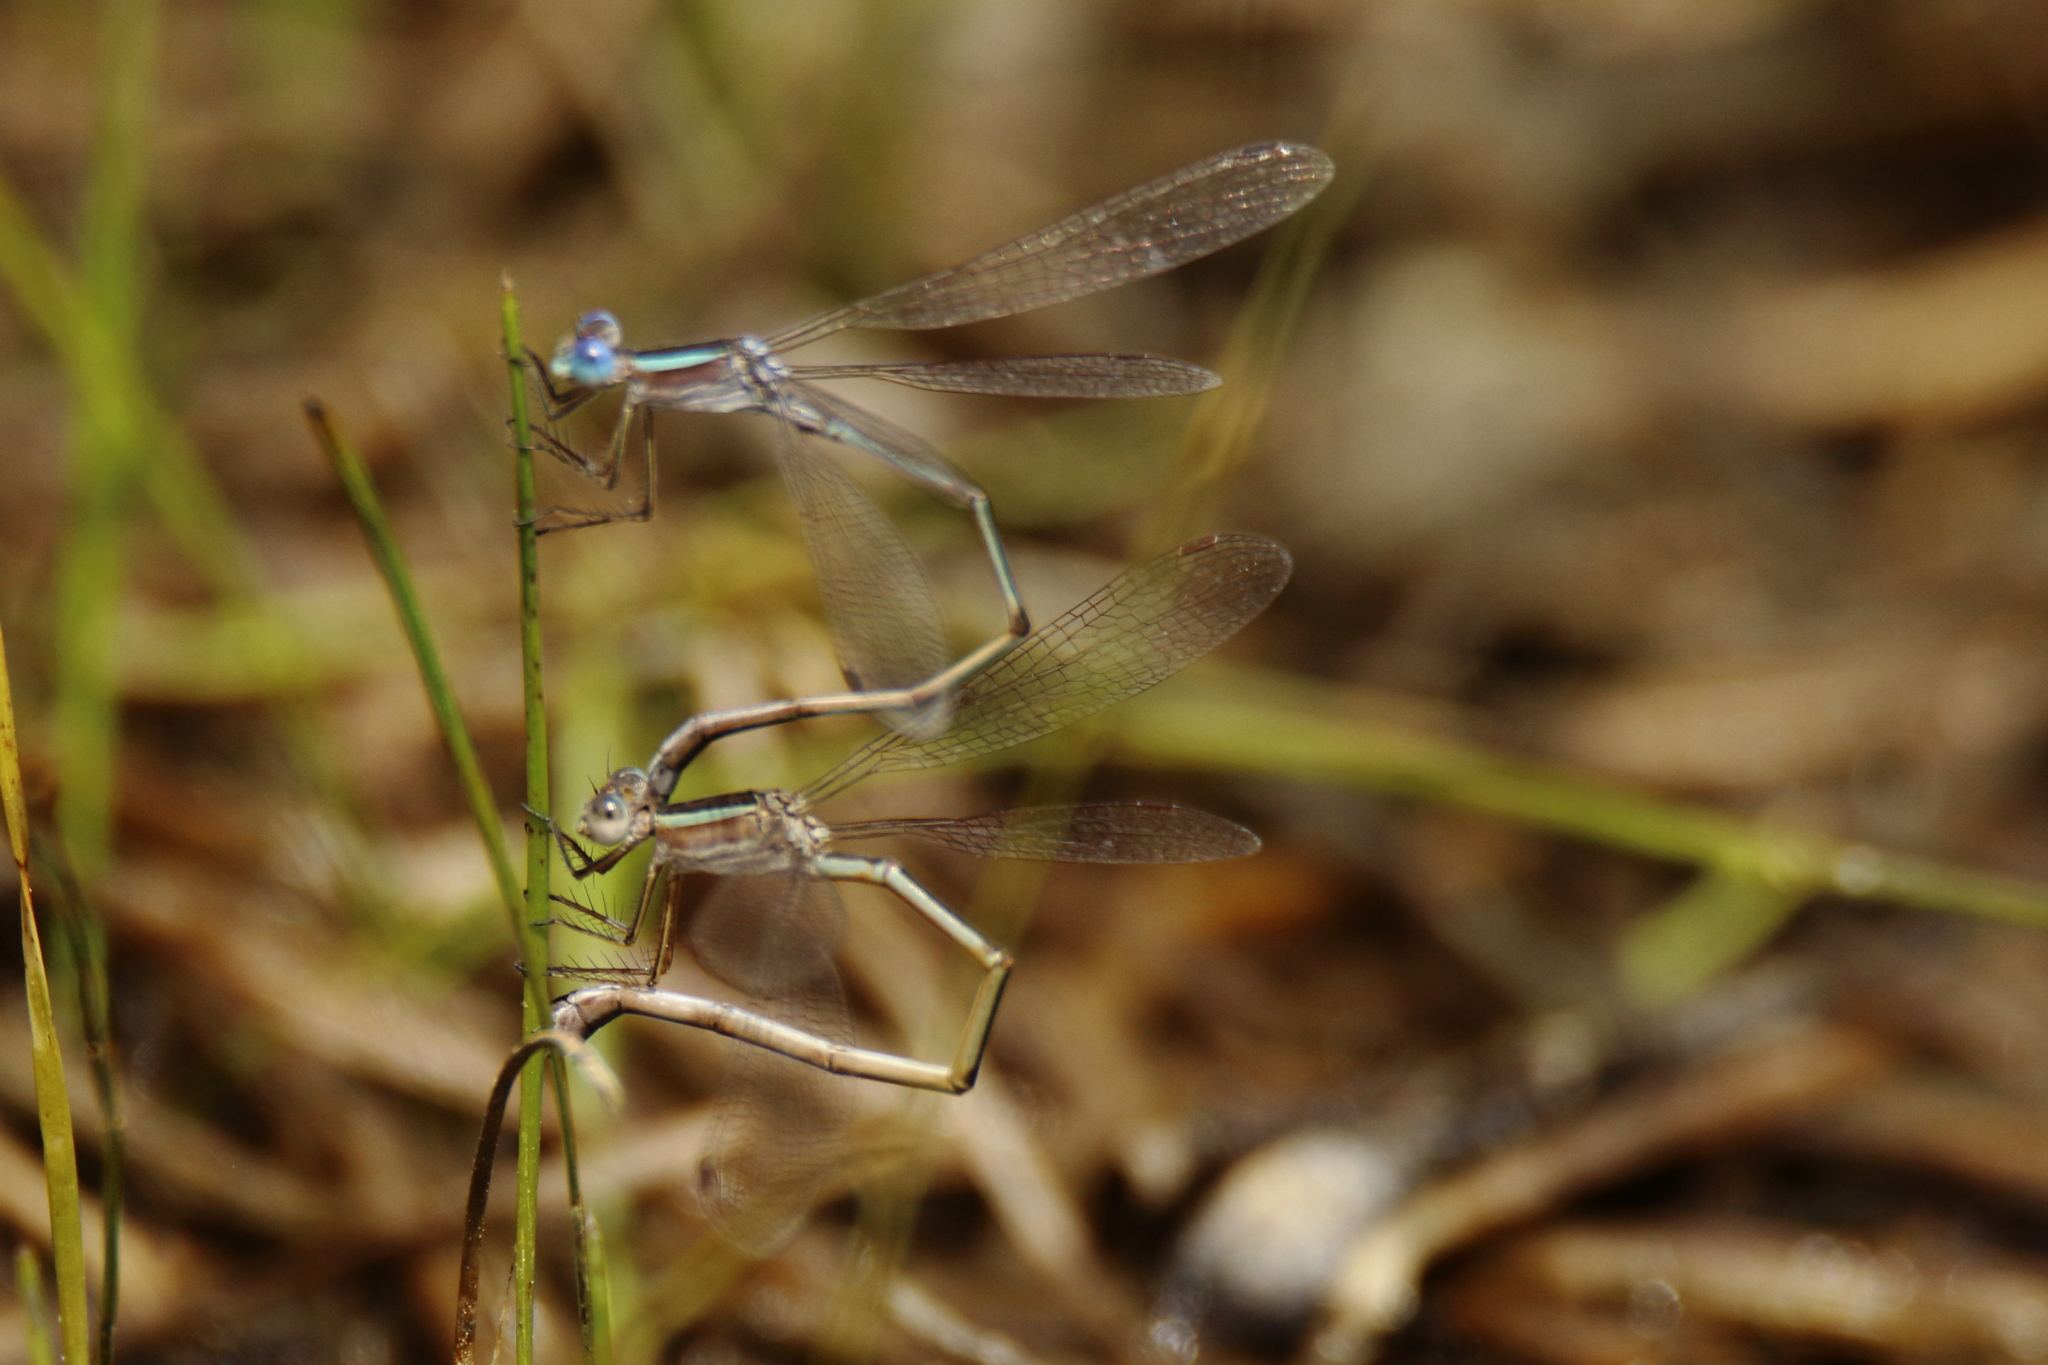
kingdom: Animalia
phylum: Arthropoda
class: Insecta
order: Odonata
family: Lestidae
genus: Lestes
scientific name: Lestes alacer
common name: Plateau spreadwing
